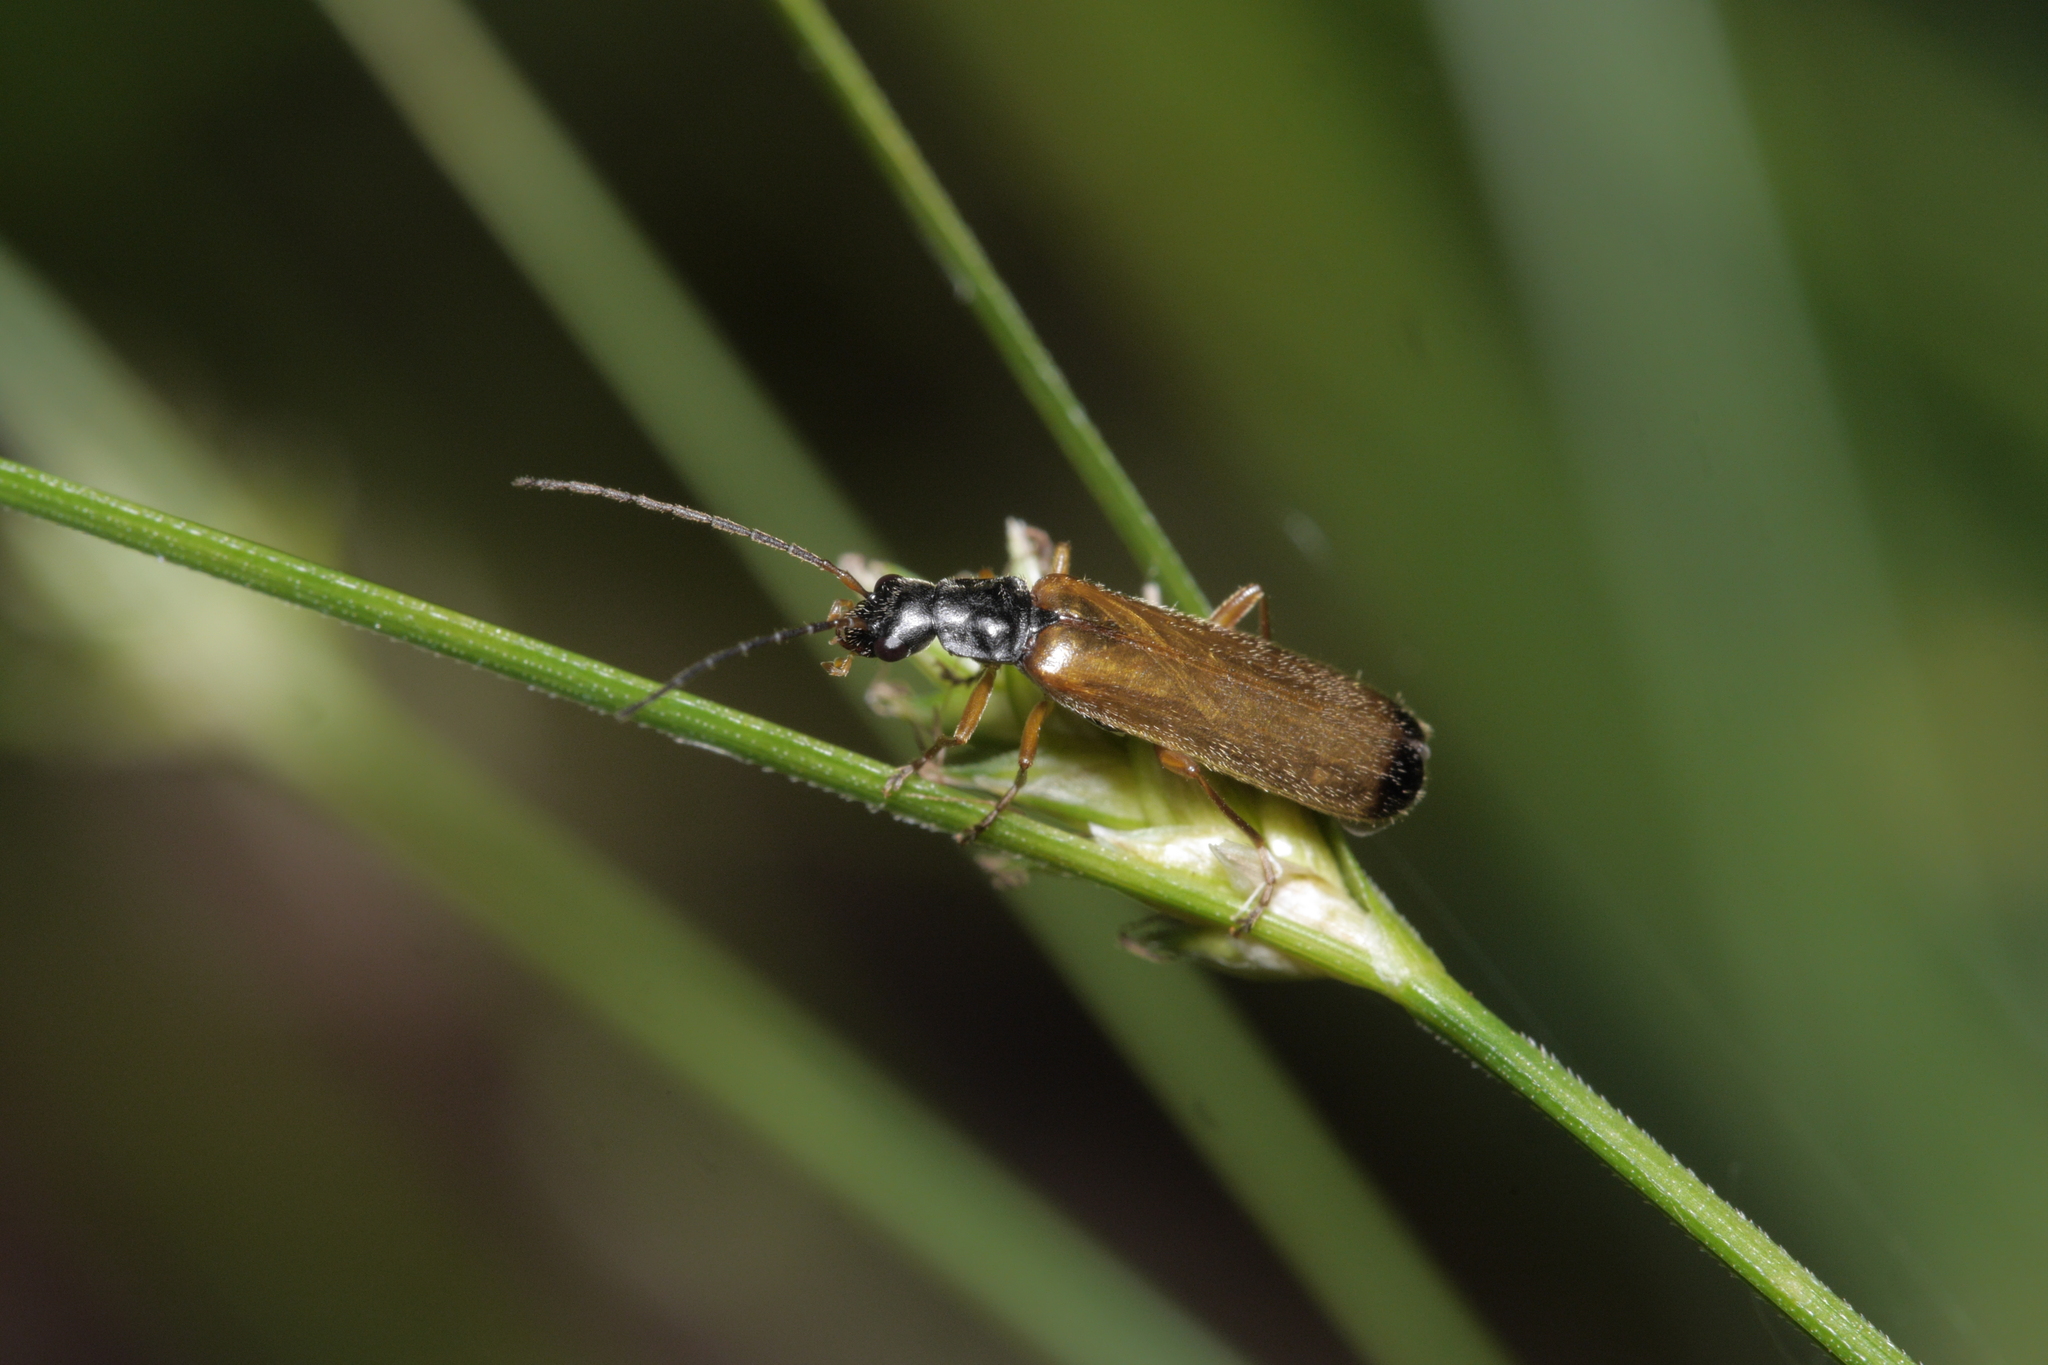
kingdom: Animalia
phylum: Arthropoda
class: Insecta
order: Coleoptera
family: Cantharidae
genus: Rhagonycha
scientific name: Rhagonycha lignosa
